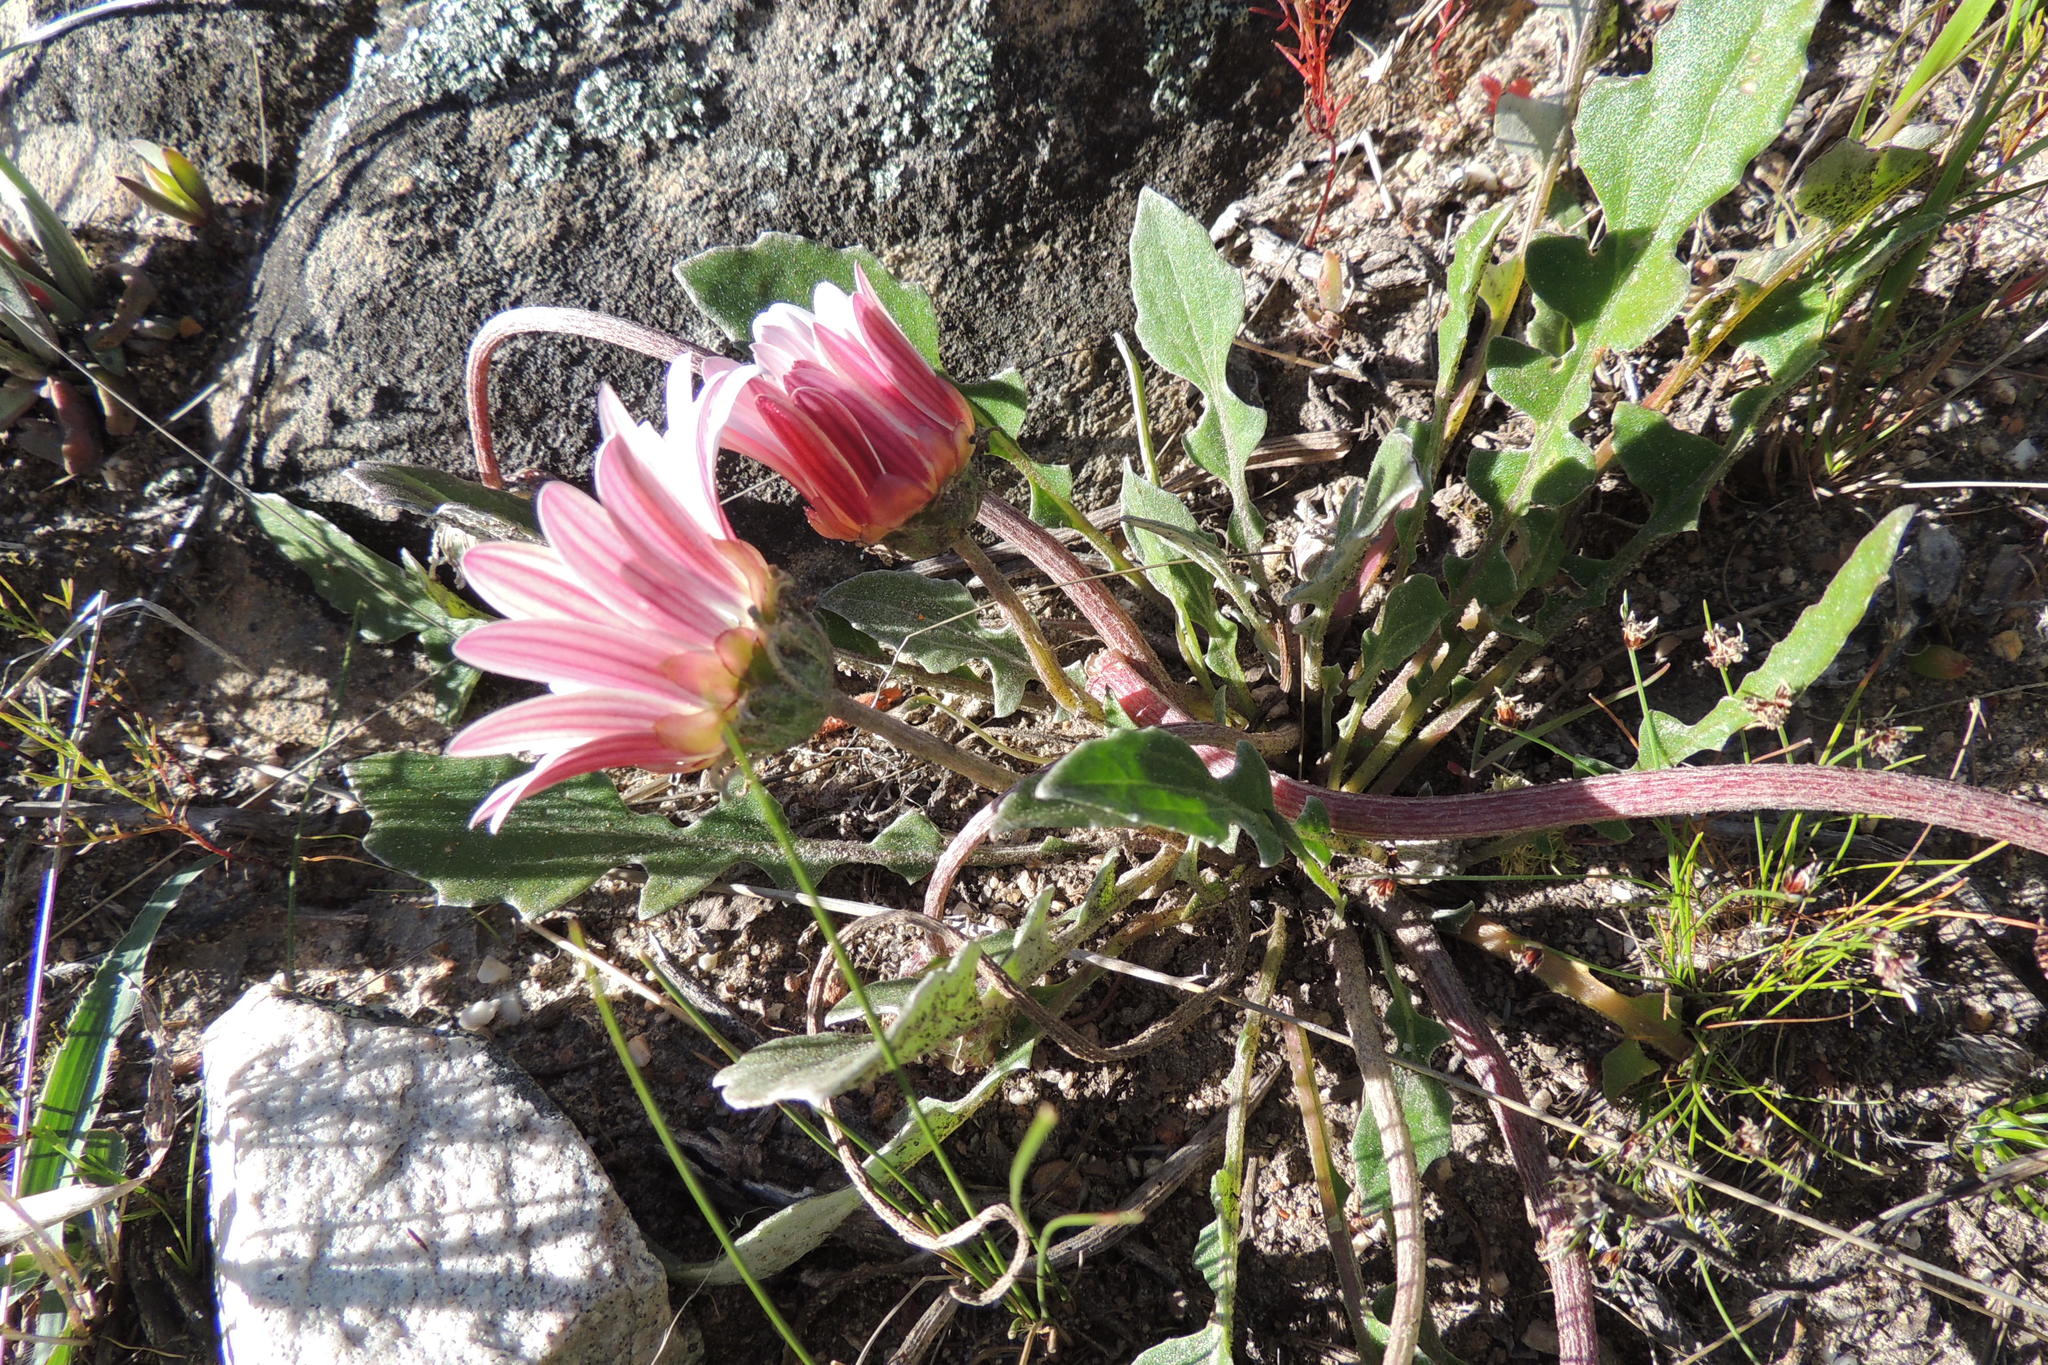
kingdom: Plantae
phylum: Tracheophyta
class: Magnoliopsida
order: Asterales
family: Asteraceae
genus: Arctotis
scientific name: Arctotis acaulis
